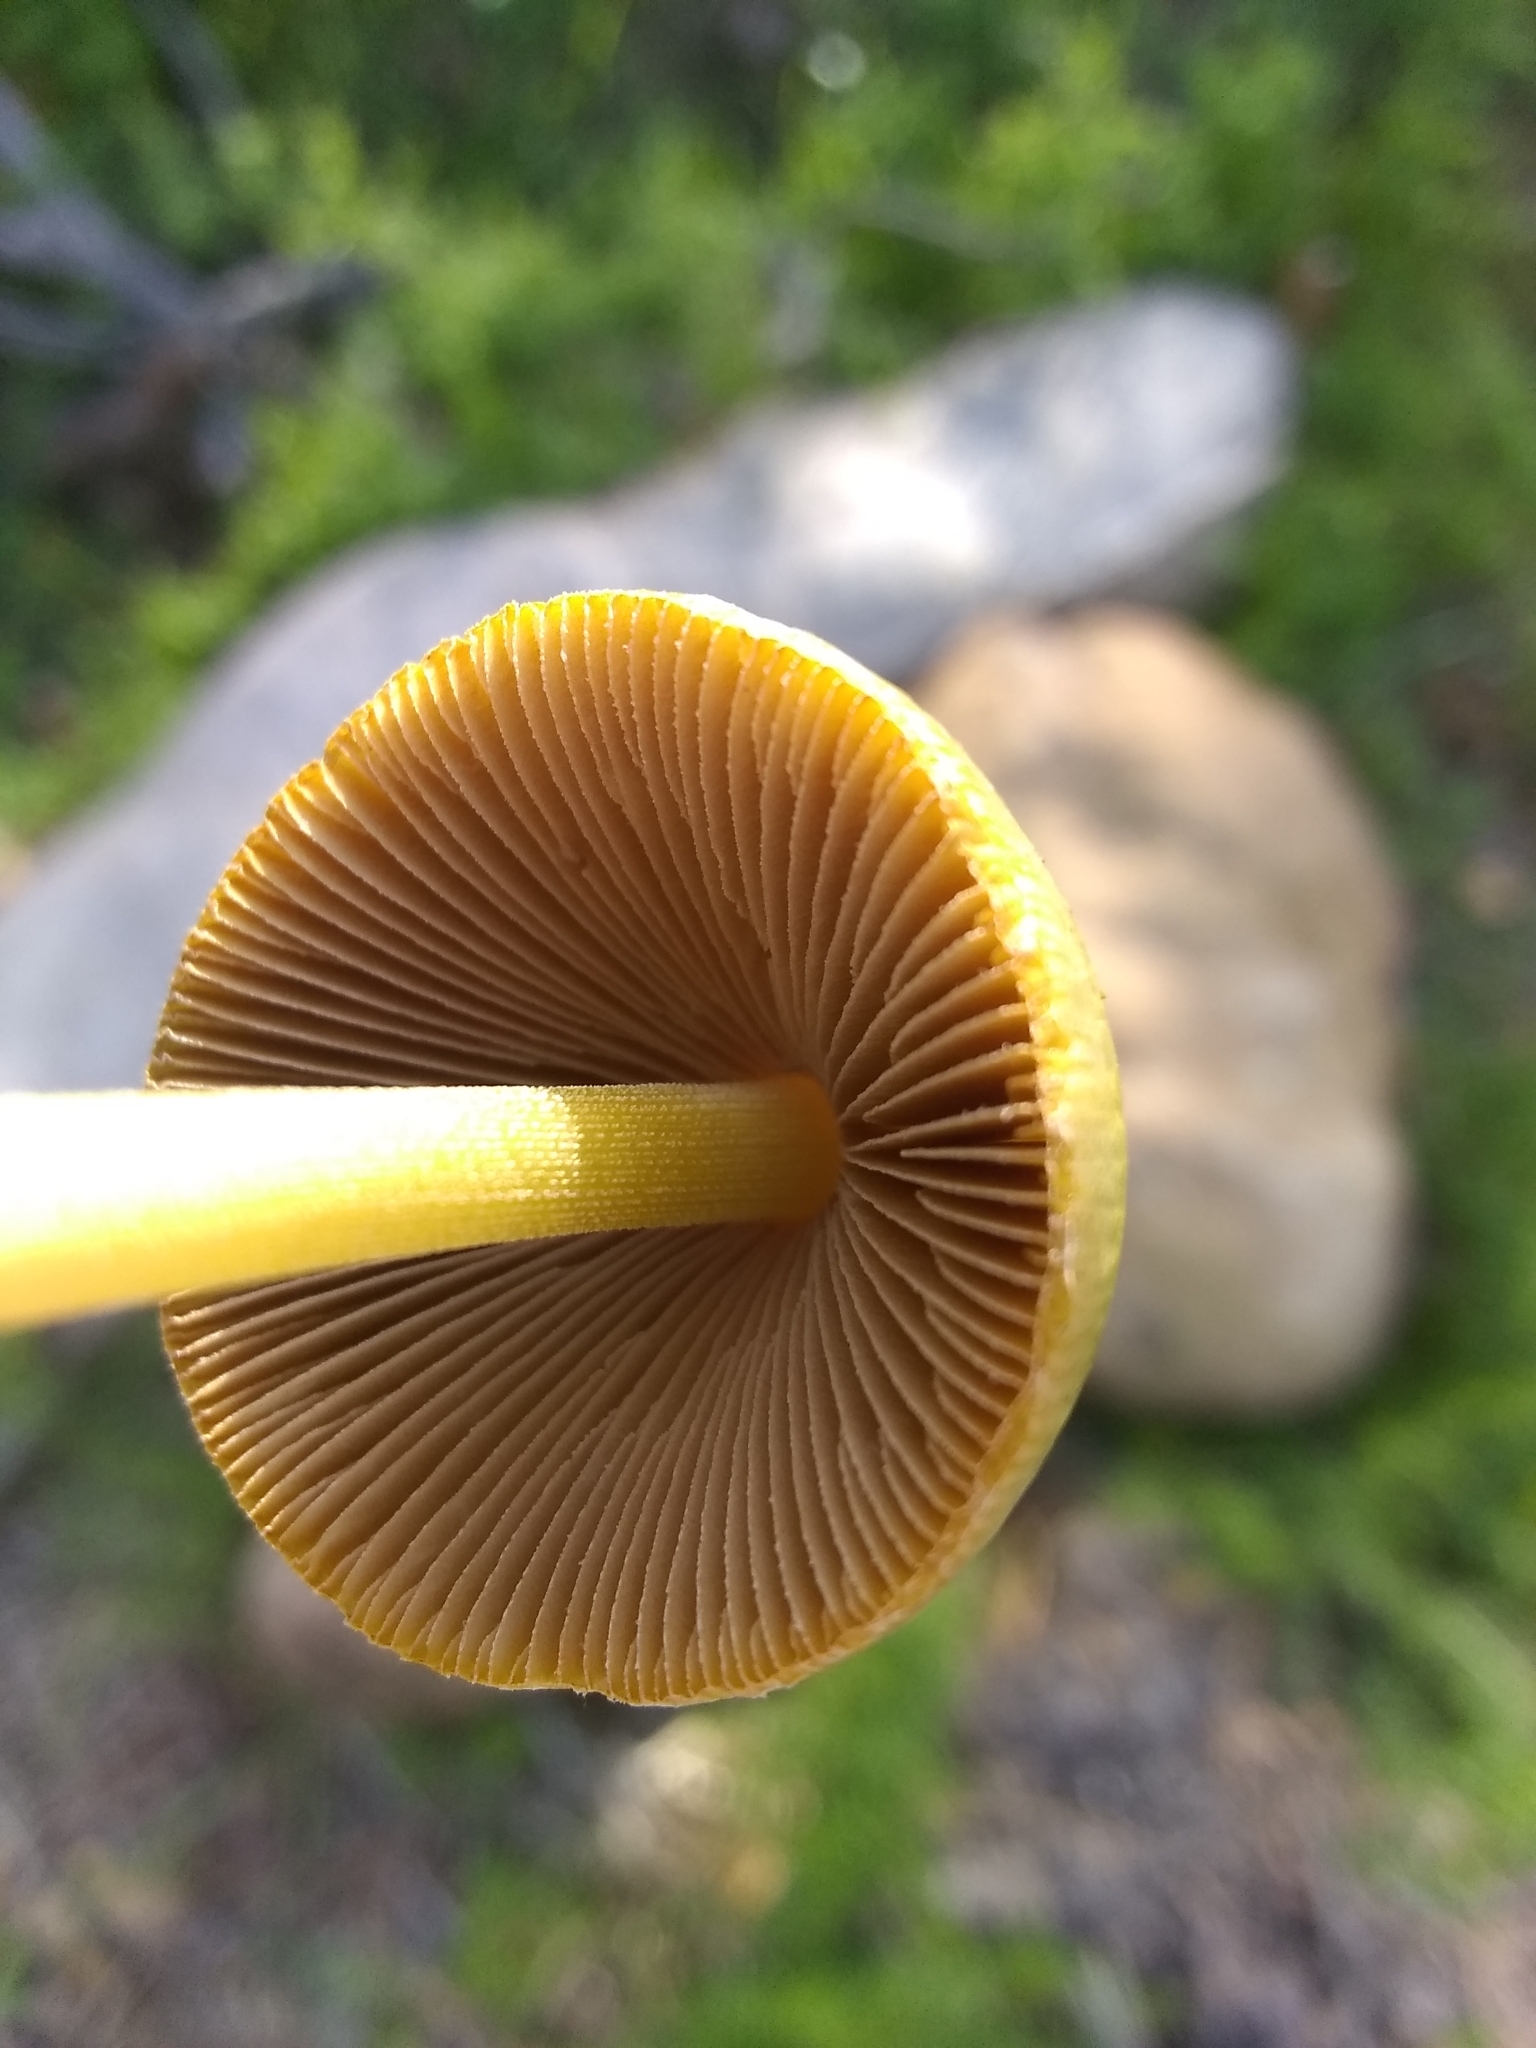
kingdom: Fungi
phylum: Basidiomycota
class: Agaricomycetes
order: Agaricales
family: Bolbitiaceae
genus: Bolbitius
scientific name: Bolbitius titubans
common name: Yellow fieldcap
